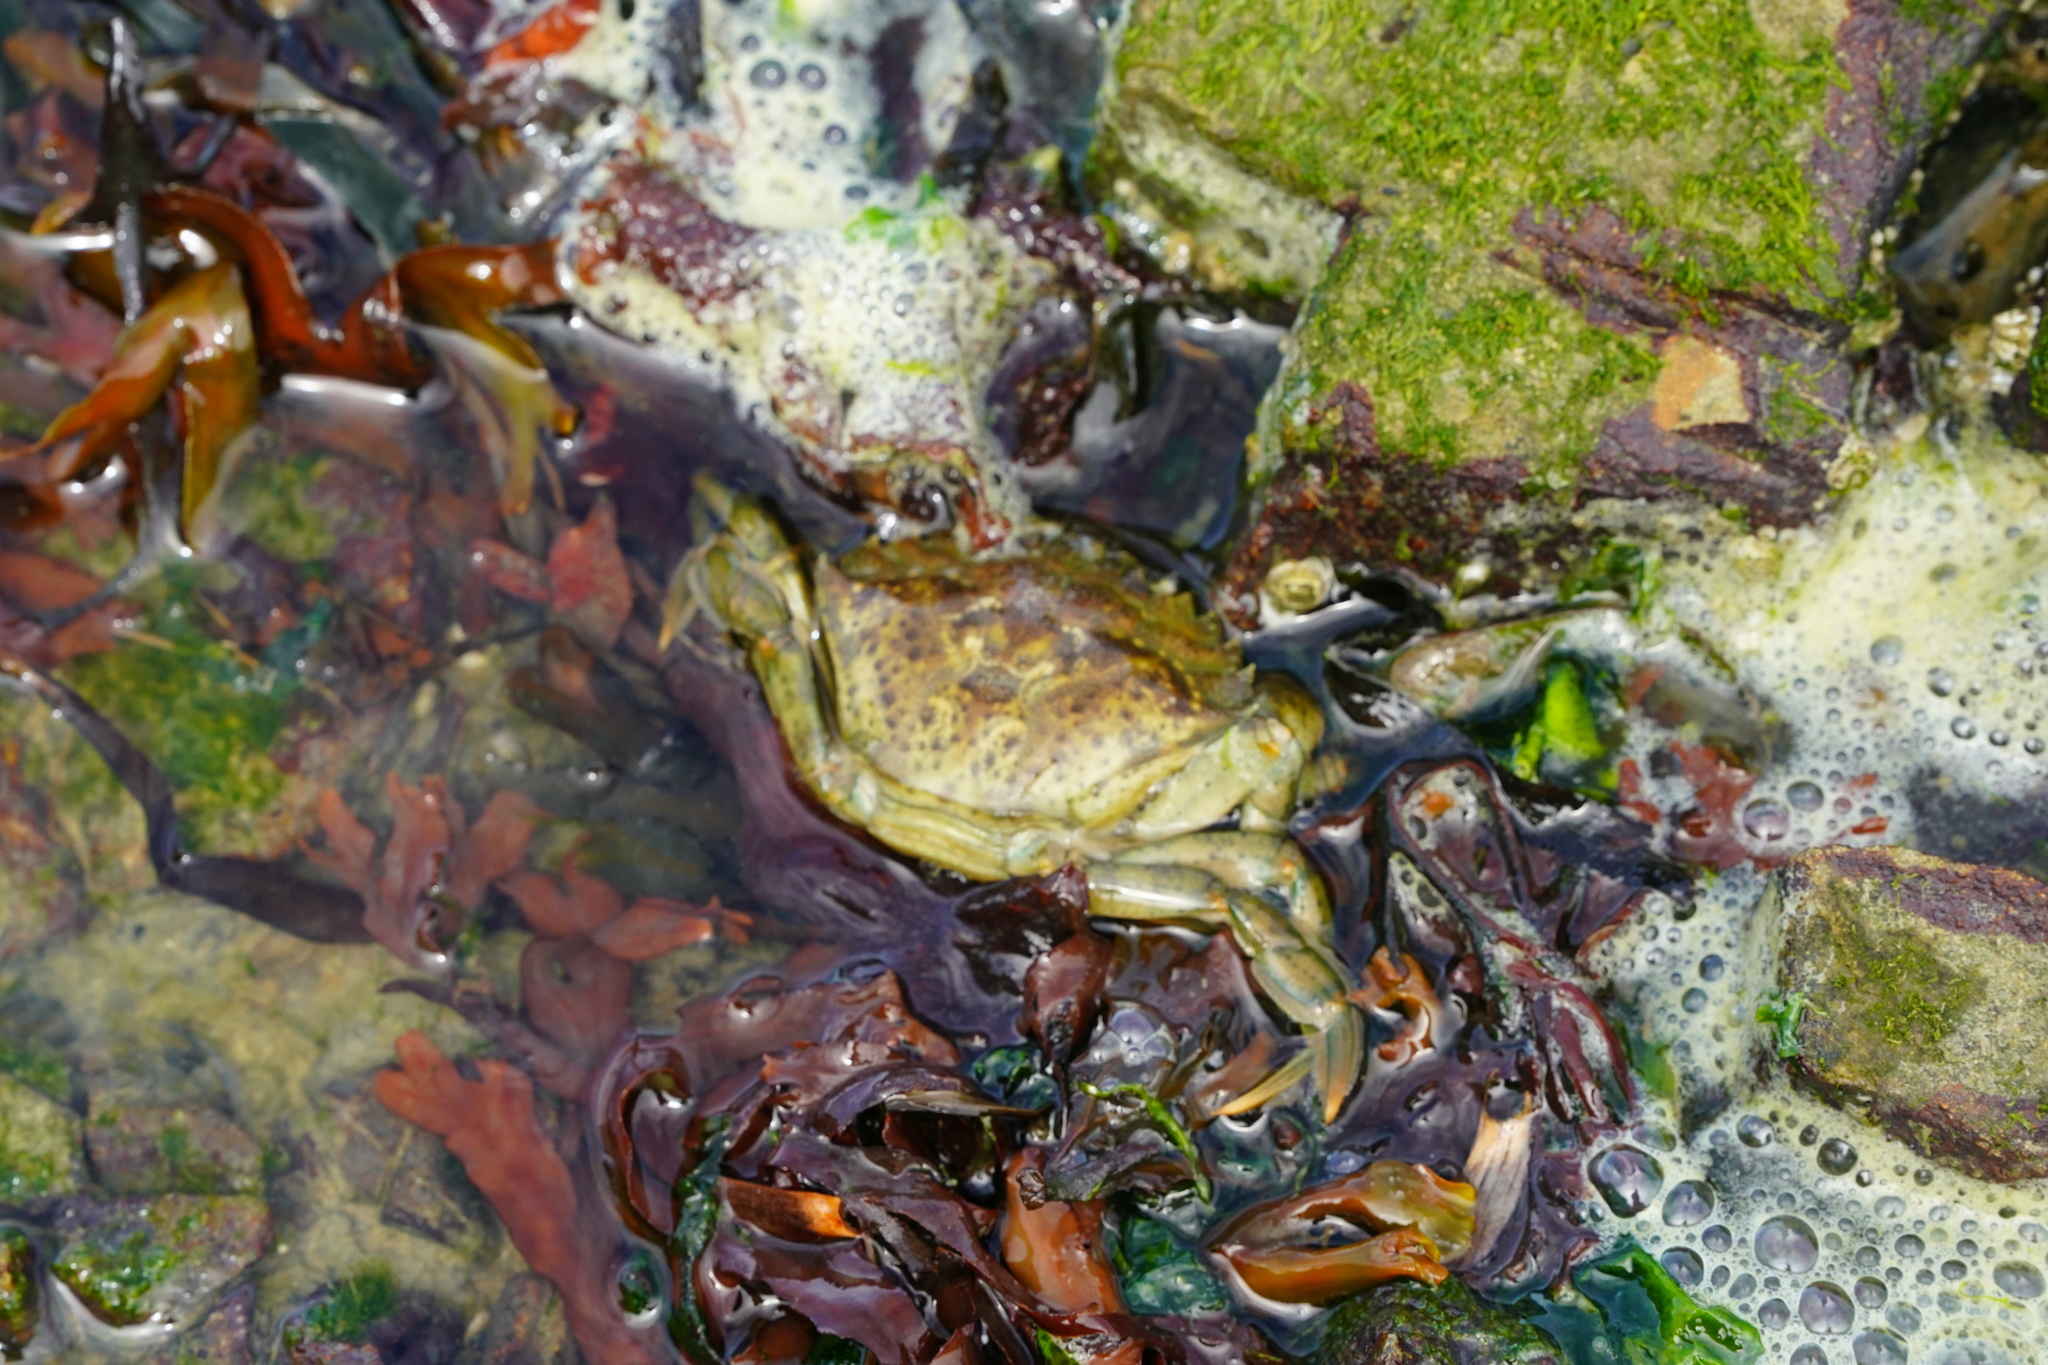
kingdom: Animalia
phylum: Arthropoda
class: Malacostraca
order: Decapoda
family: Carcinidae
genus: Carcinus
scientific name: Carcinus maenas
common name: European green crab
